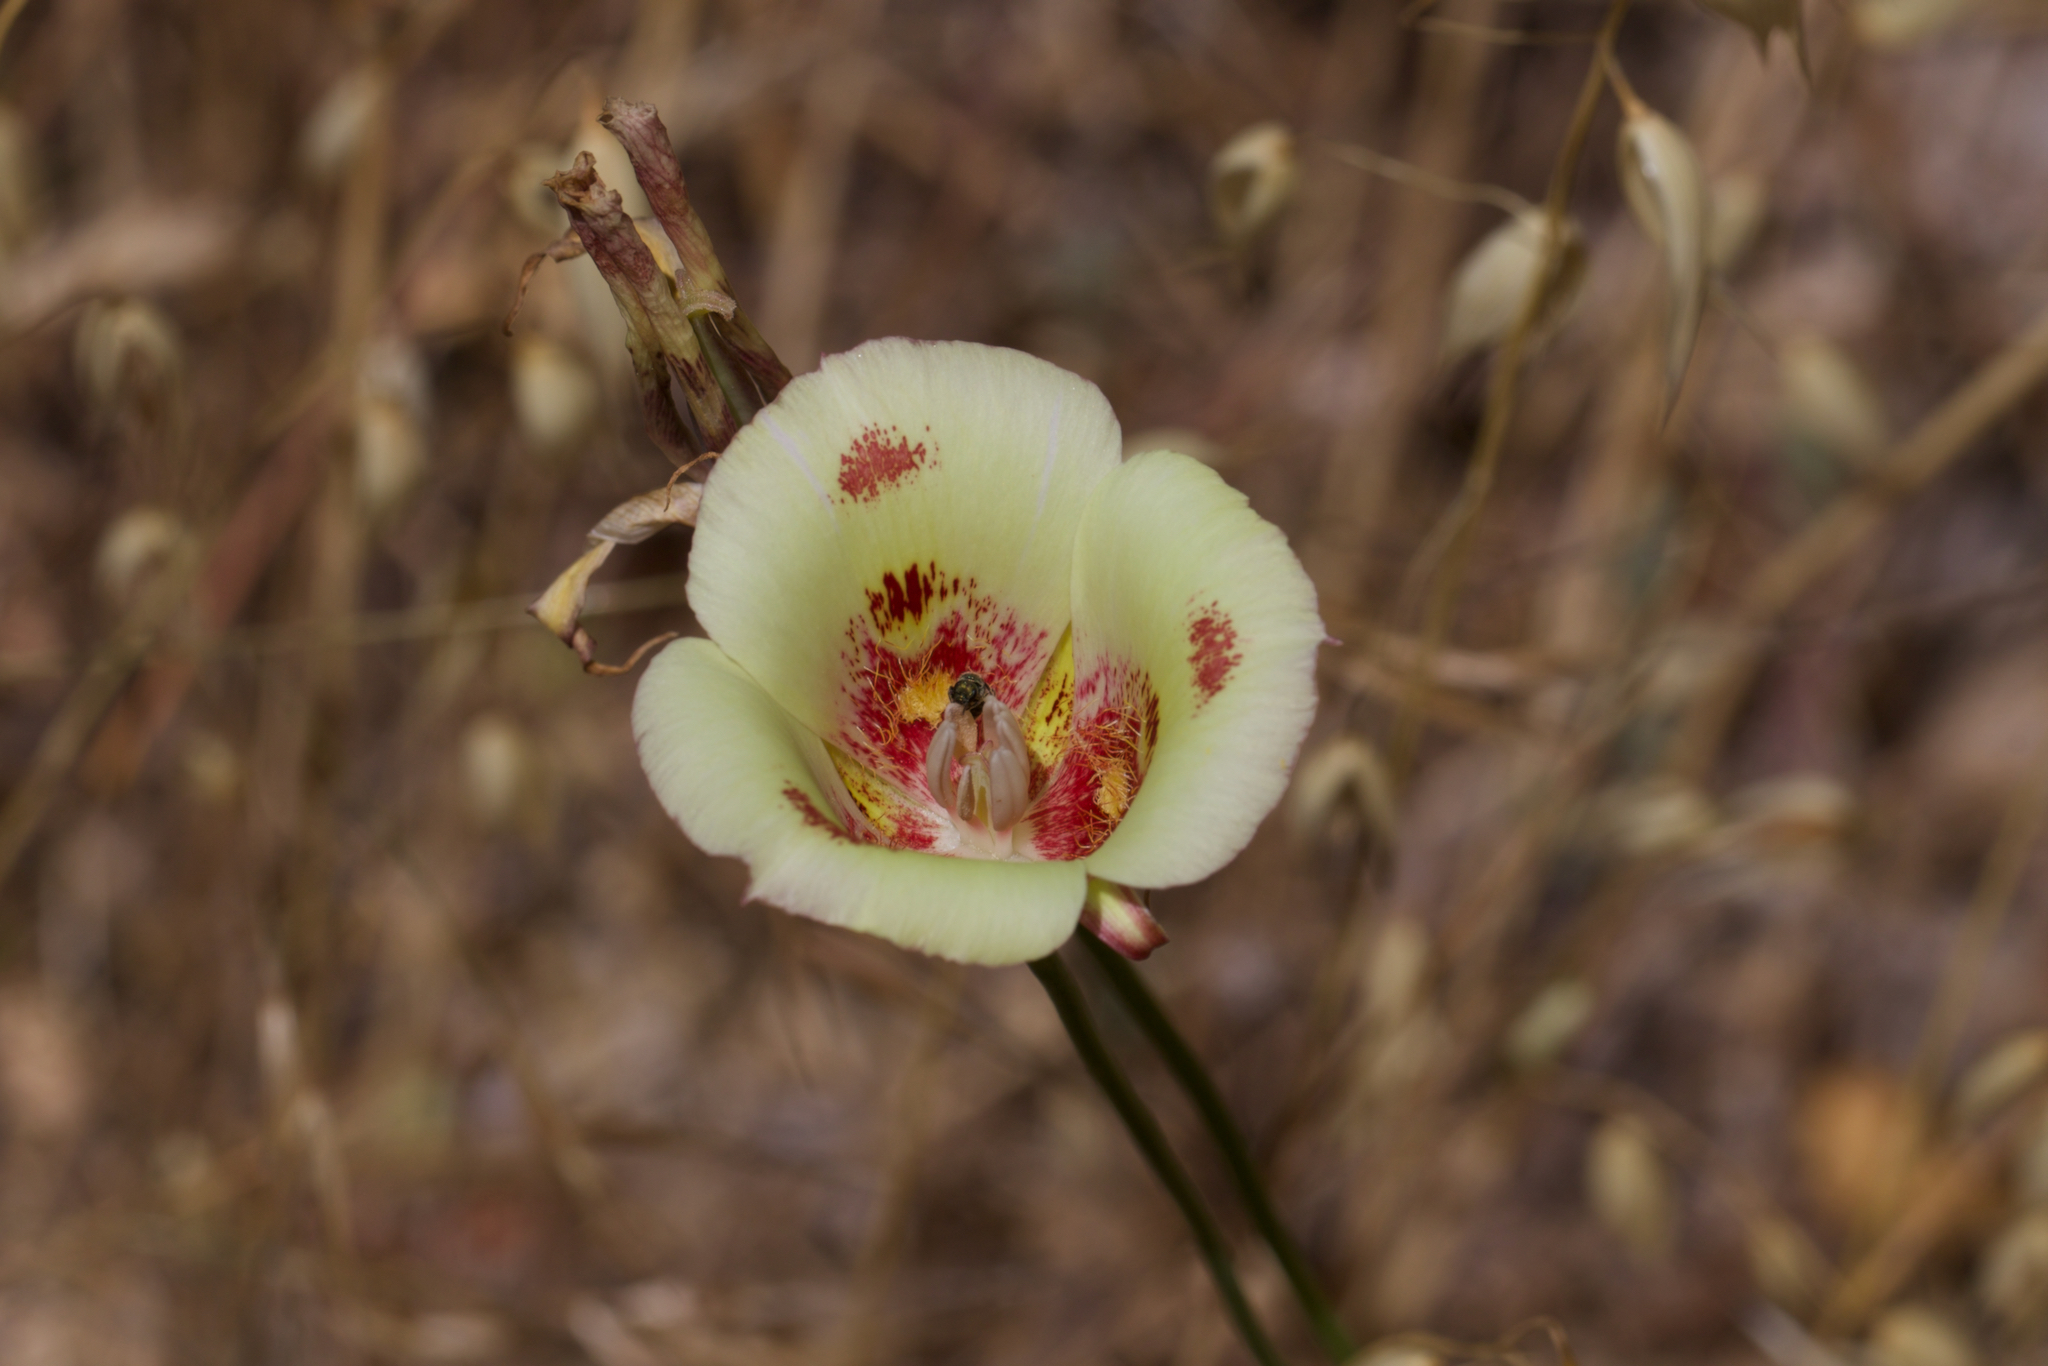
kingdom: Plantae
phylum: Tracheophyta
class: Liliopsida
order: Liliales
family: Liliaceae
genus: Calochortus
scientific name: Calochortus venustus
